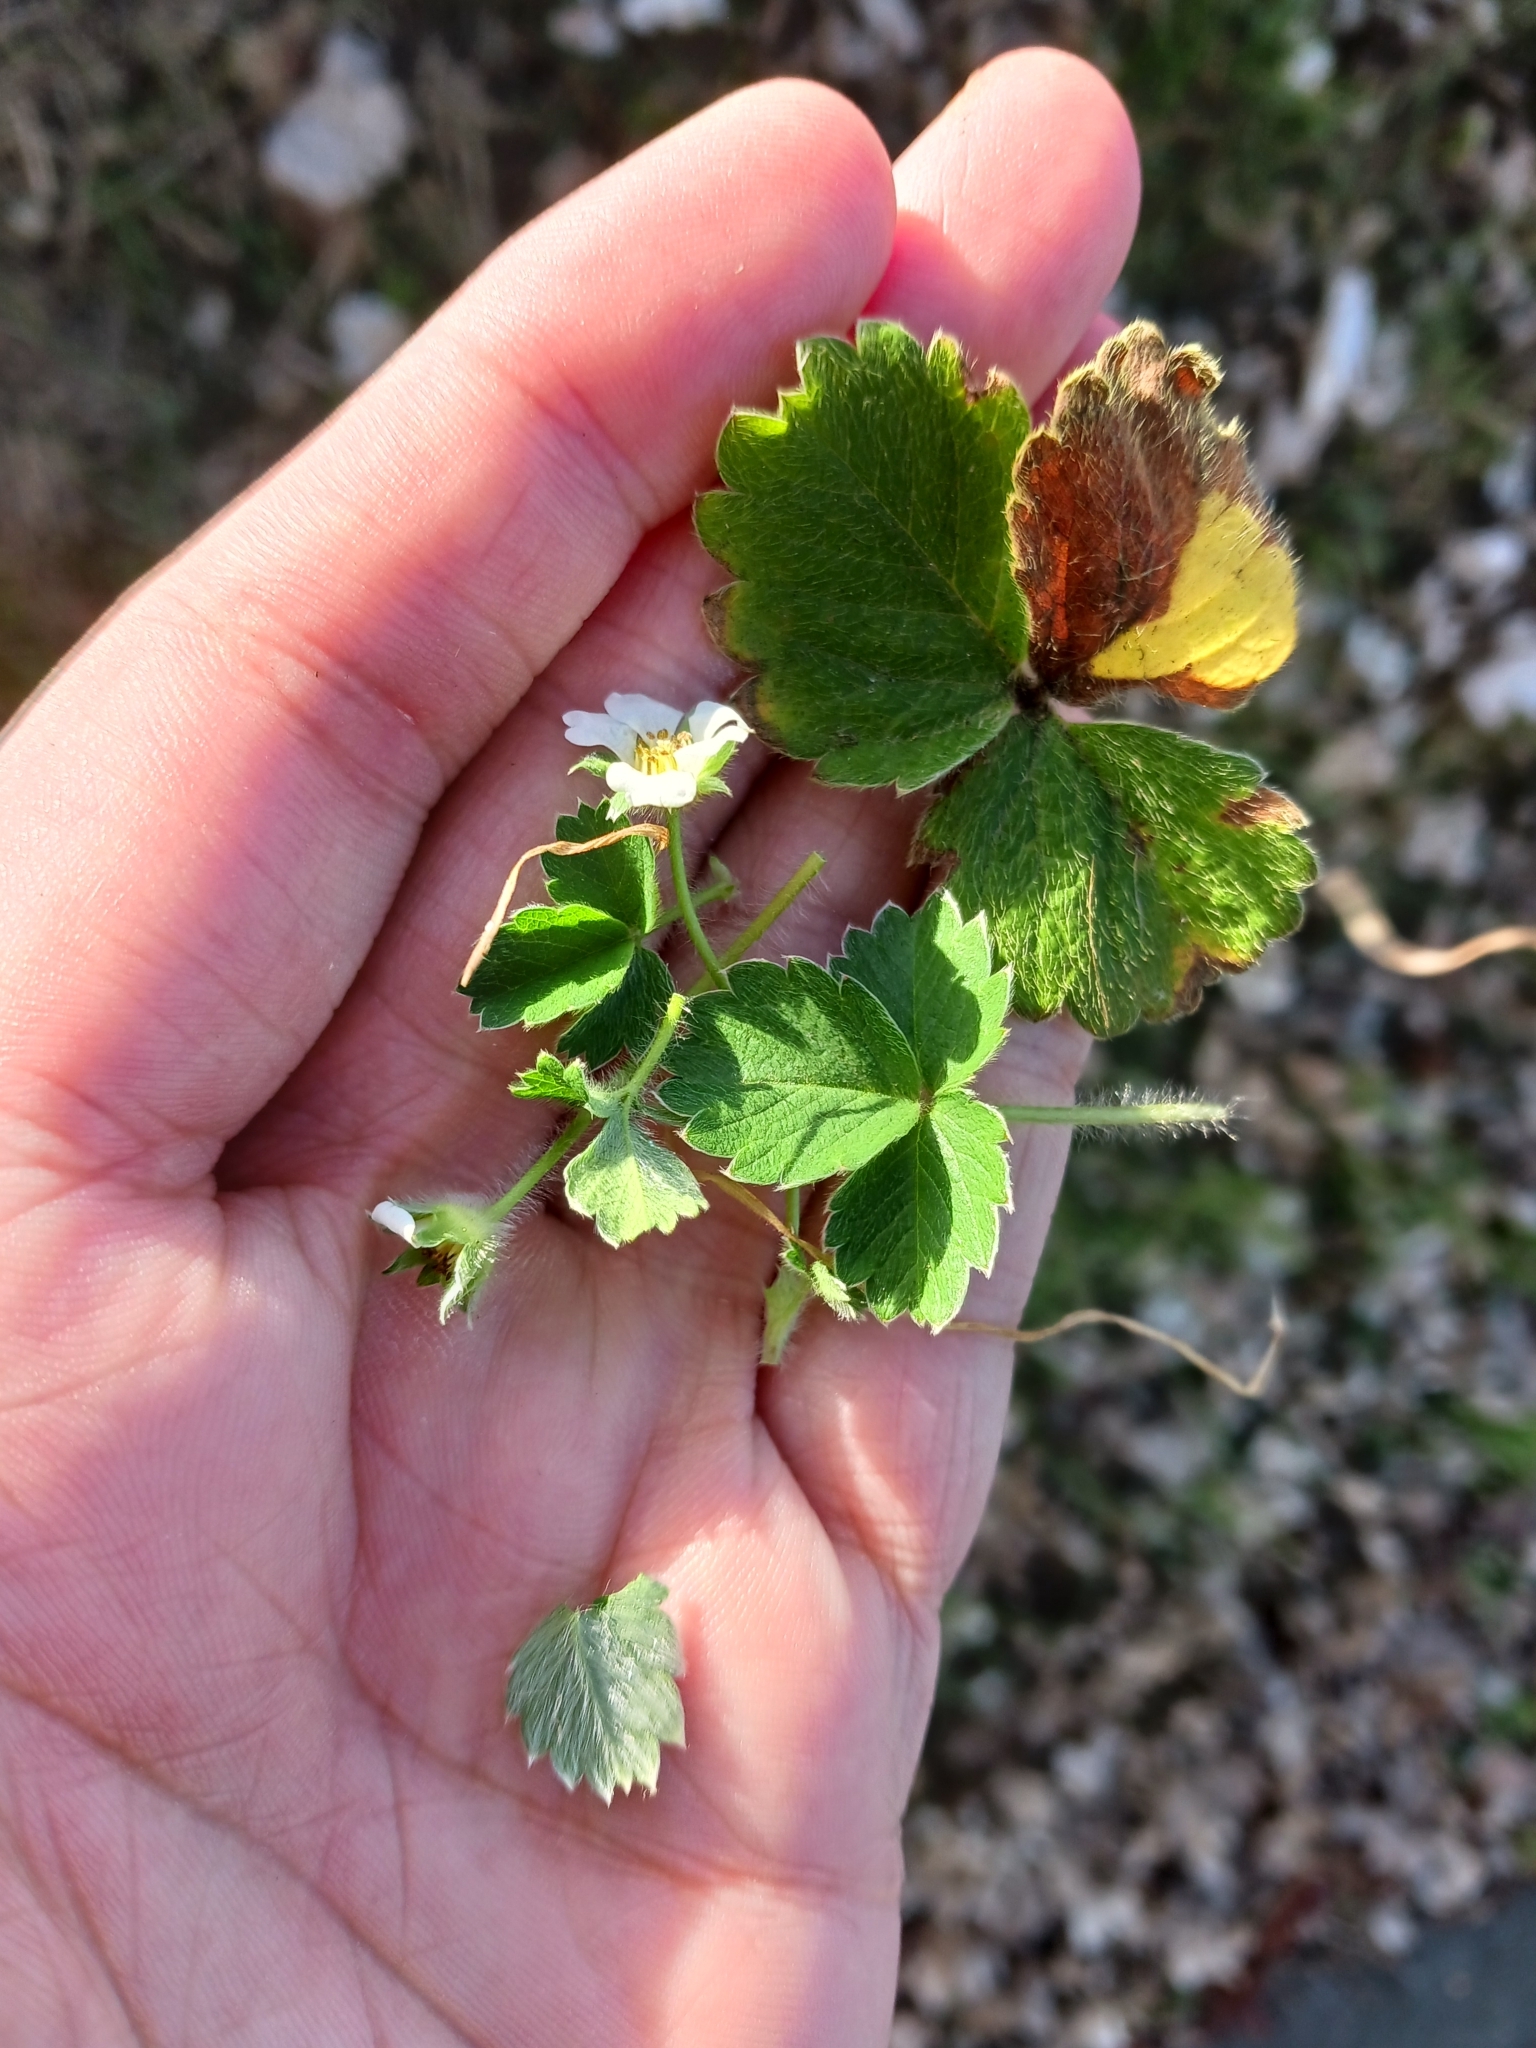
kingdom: Plantae
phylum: Tracheophyta
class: Magnoliopsida
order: Rosales
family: Rosaceae
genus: Potentilla
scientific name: Potentilla sterilis
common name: Barren strawberry
